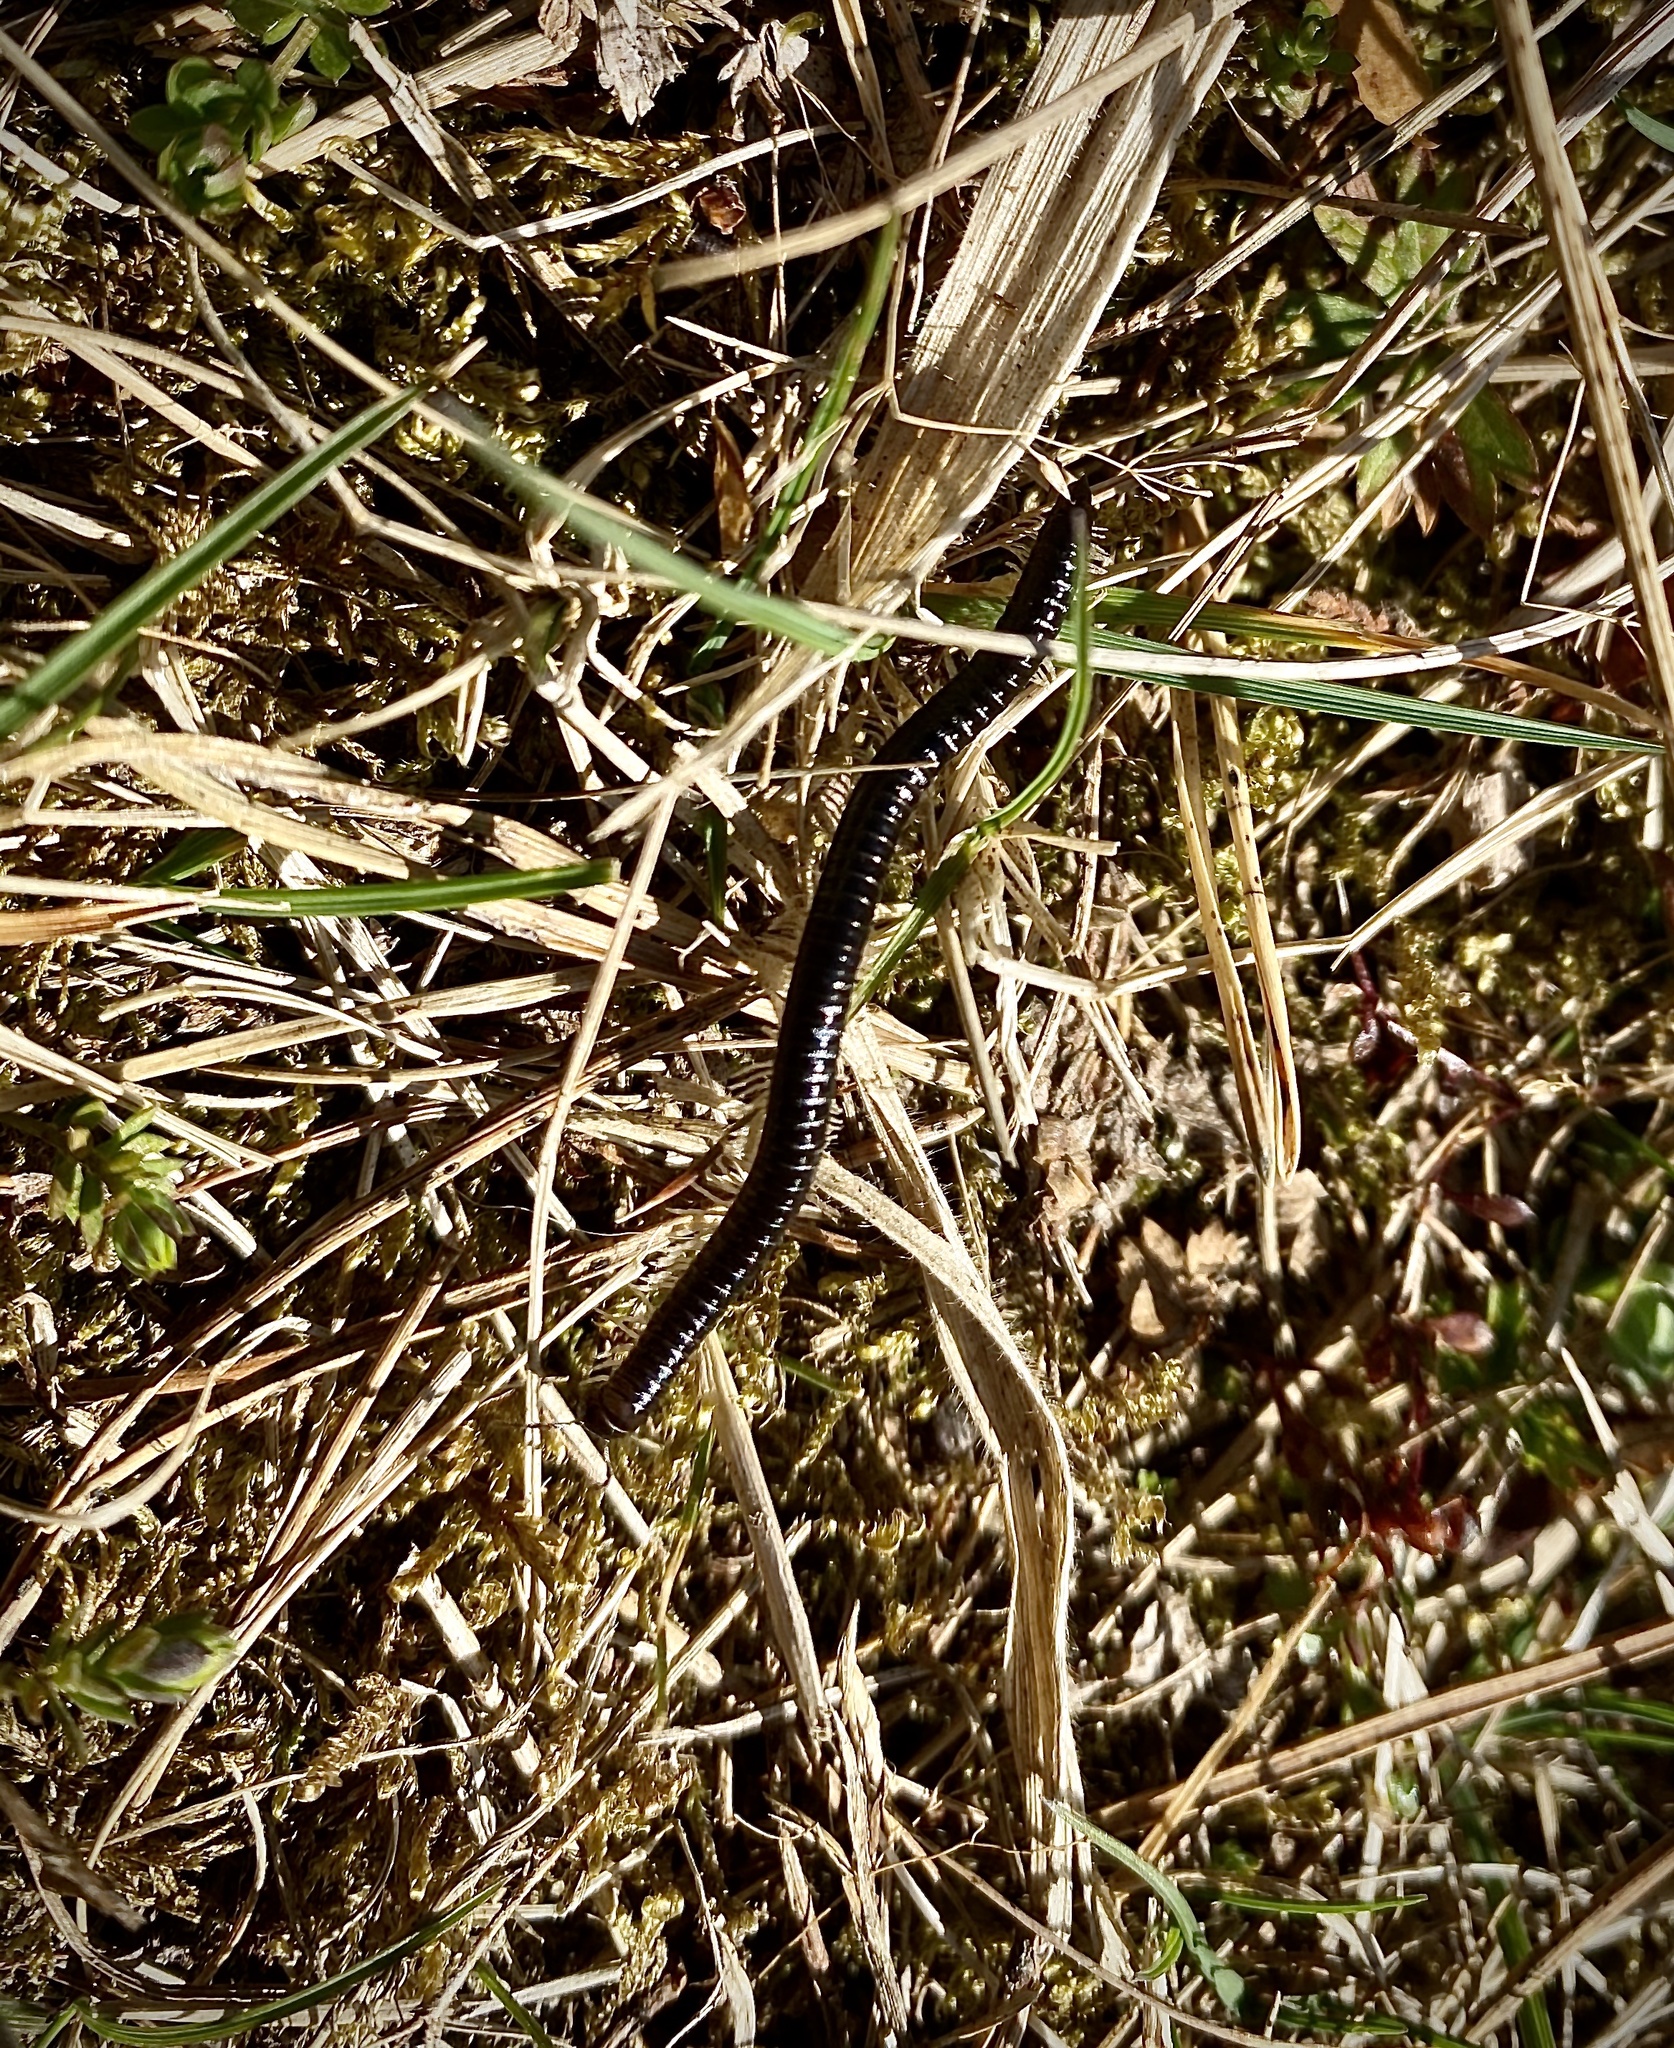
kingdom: Animalia
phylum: Arthropoda
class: Diplopoda
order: Julida
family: Julidae
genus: Tachypodoiulus
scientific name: Tachypodoiulus niger
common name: White-legged snake millipede
